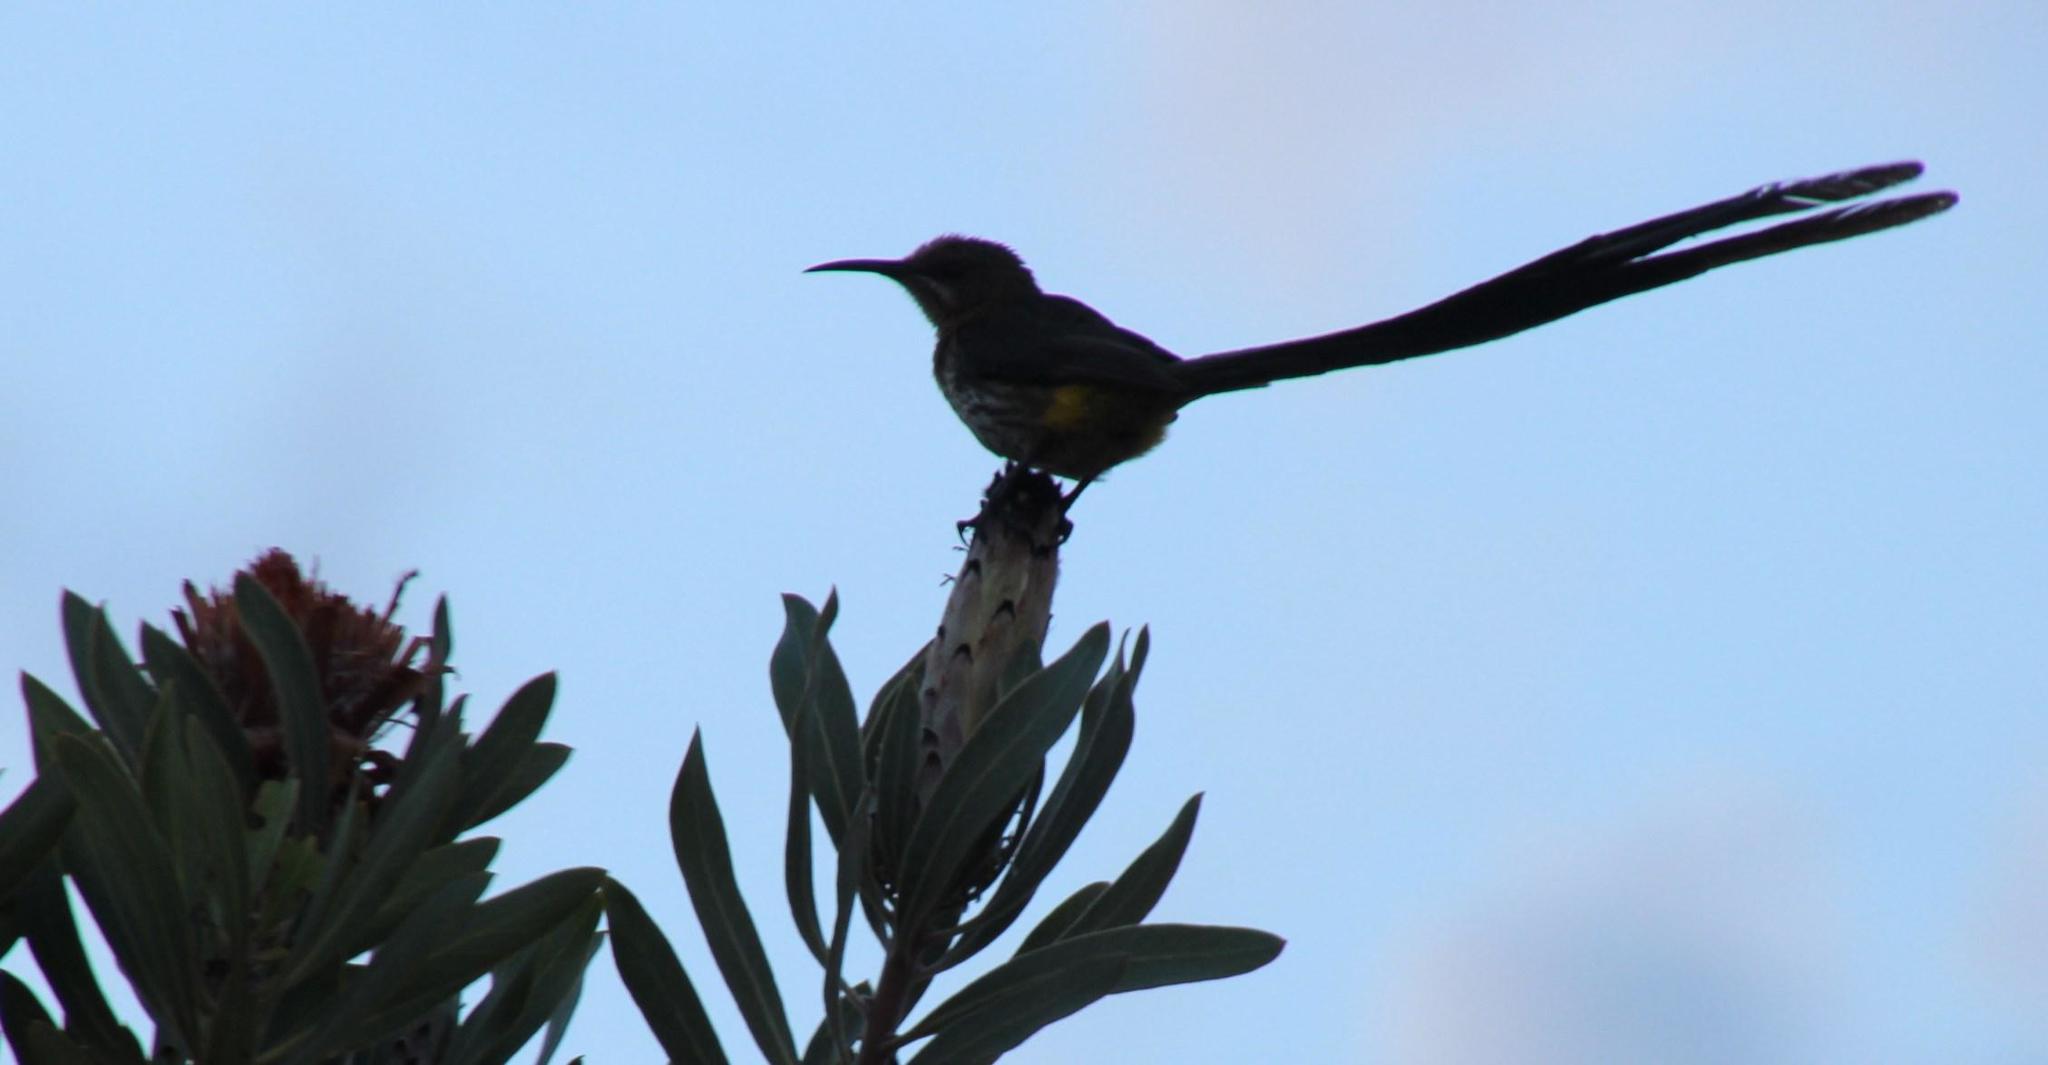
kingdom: Animalia
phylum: Chordata
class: Aves
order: Passeriformes
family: Promeropidae
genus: Promerops
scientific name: Promerops cafer
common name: Cape sugarbird
